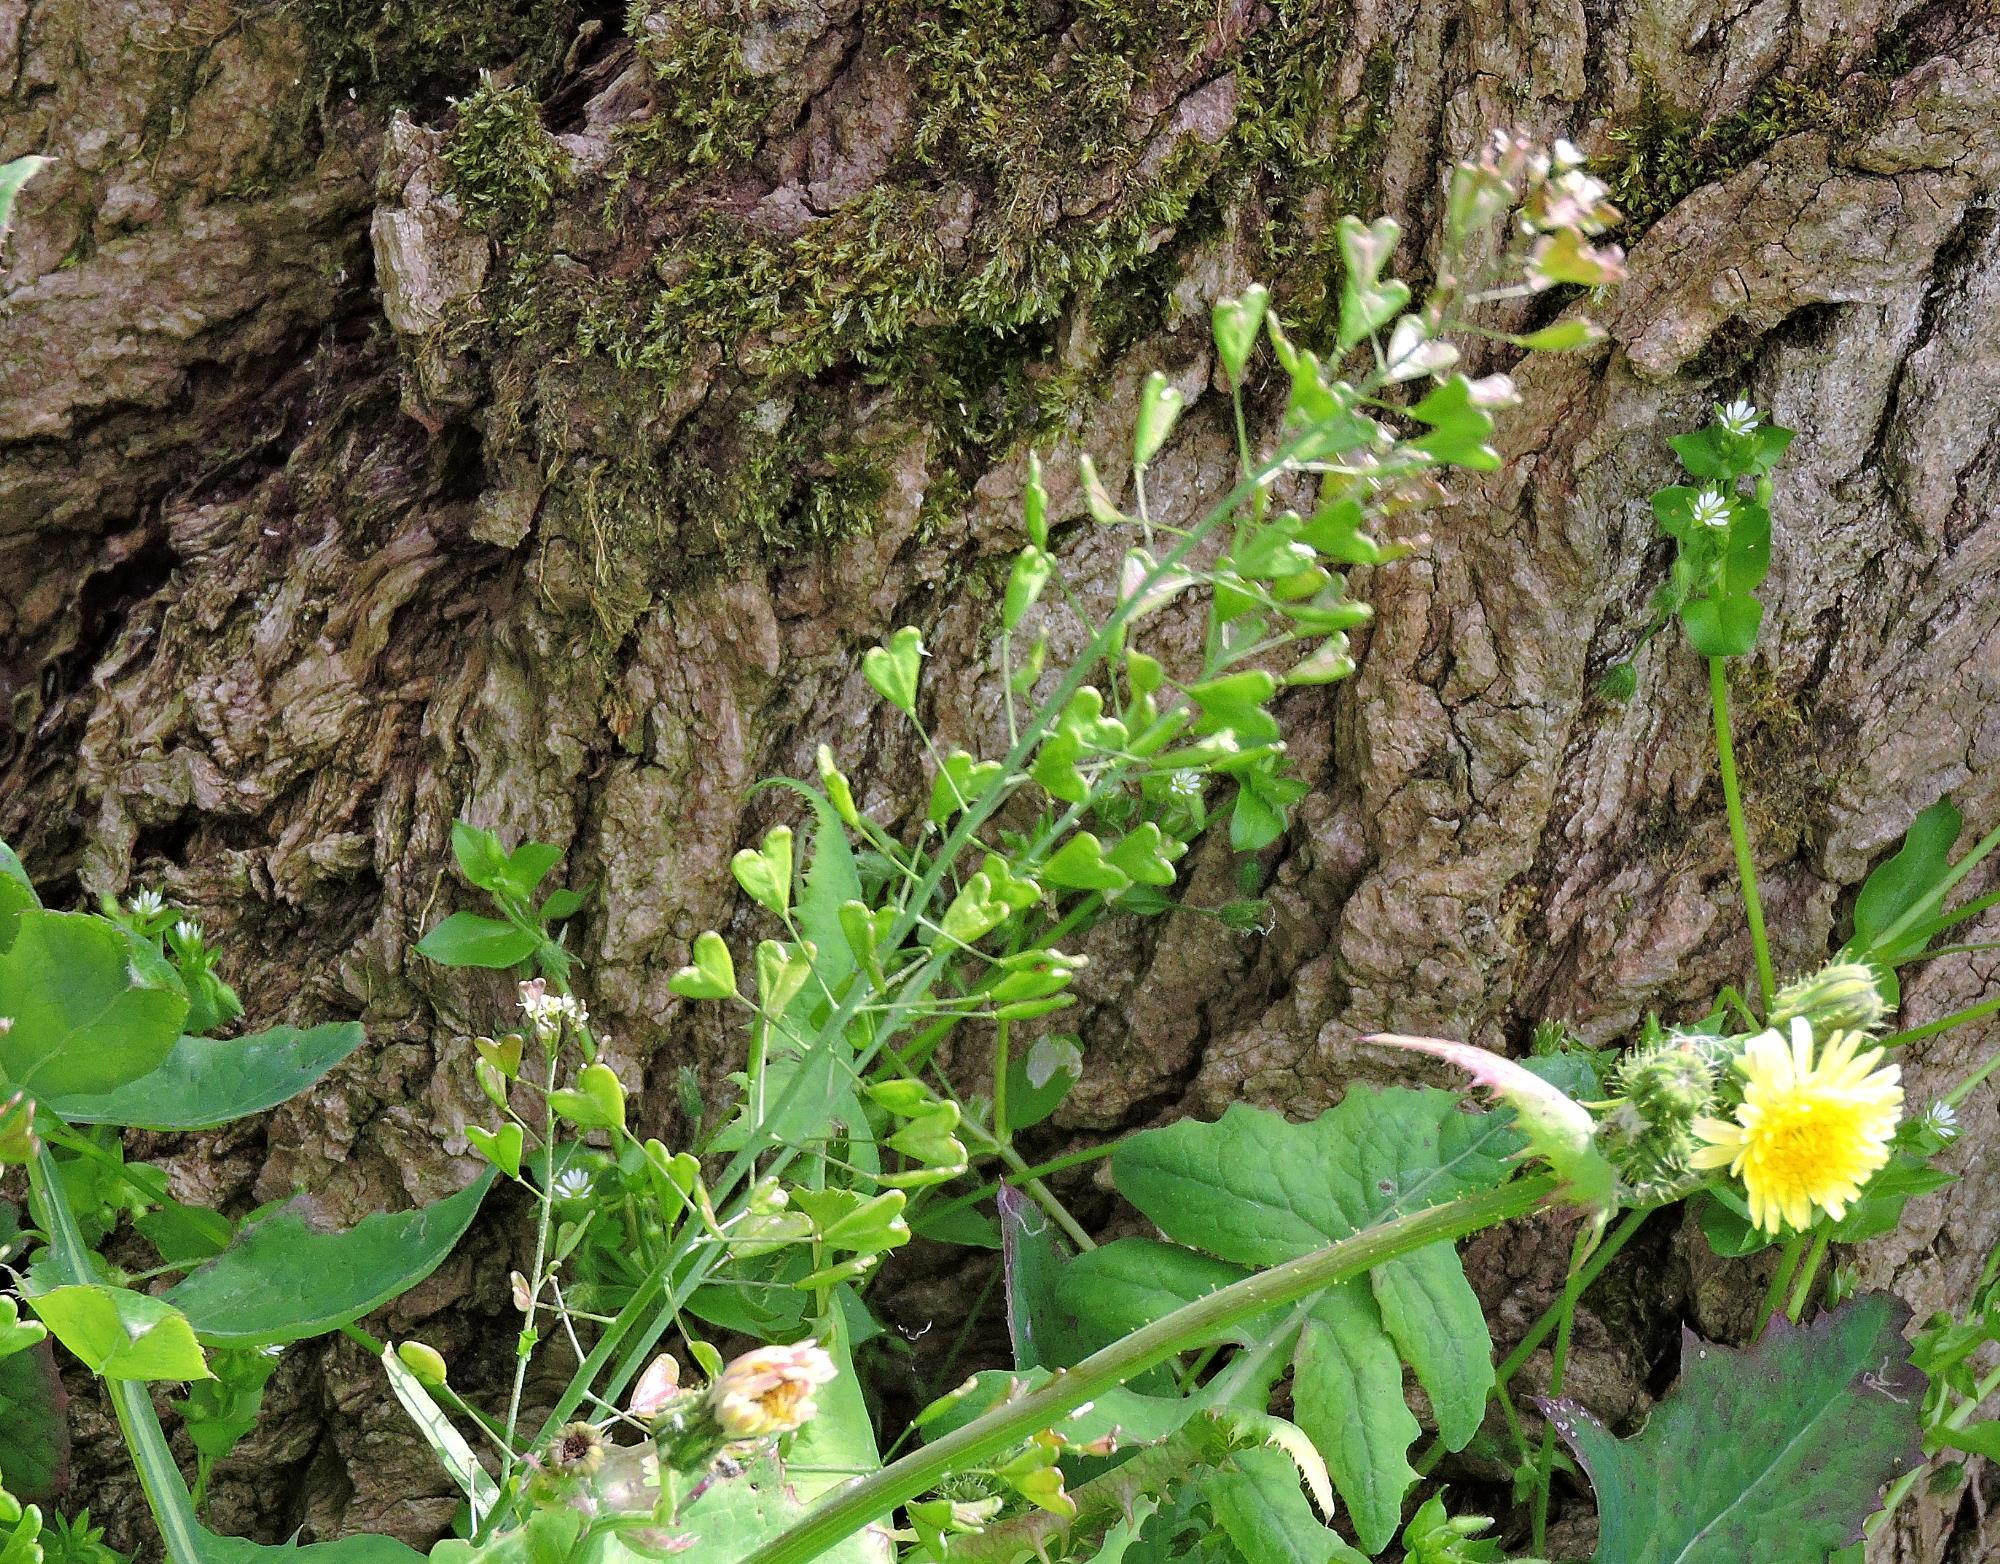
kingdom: Plantae
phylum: Tracheophyta
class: Magnoliopsida
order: Brassicales
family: Brassicaceae
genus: Capsella
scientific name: Capsella bursa-pastoris
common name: Shepherd's purse
